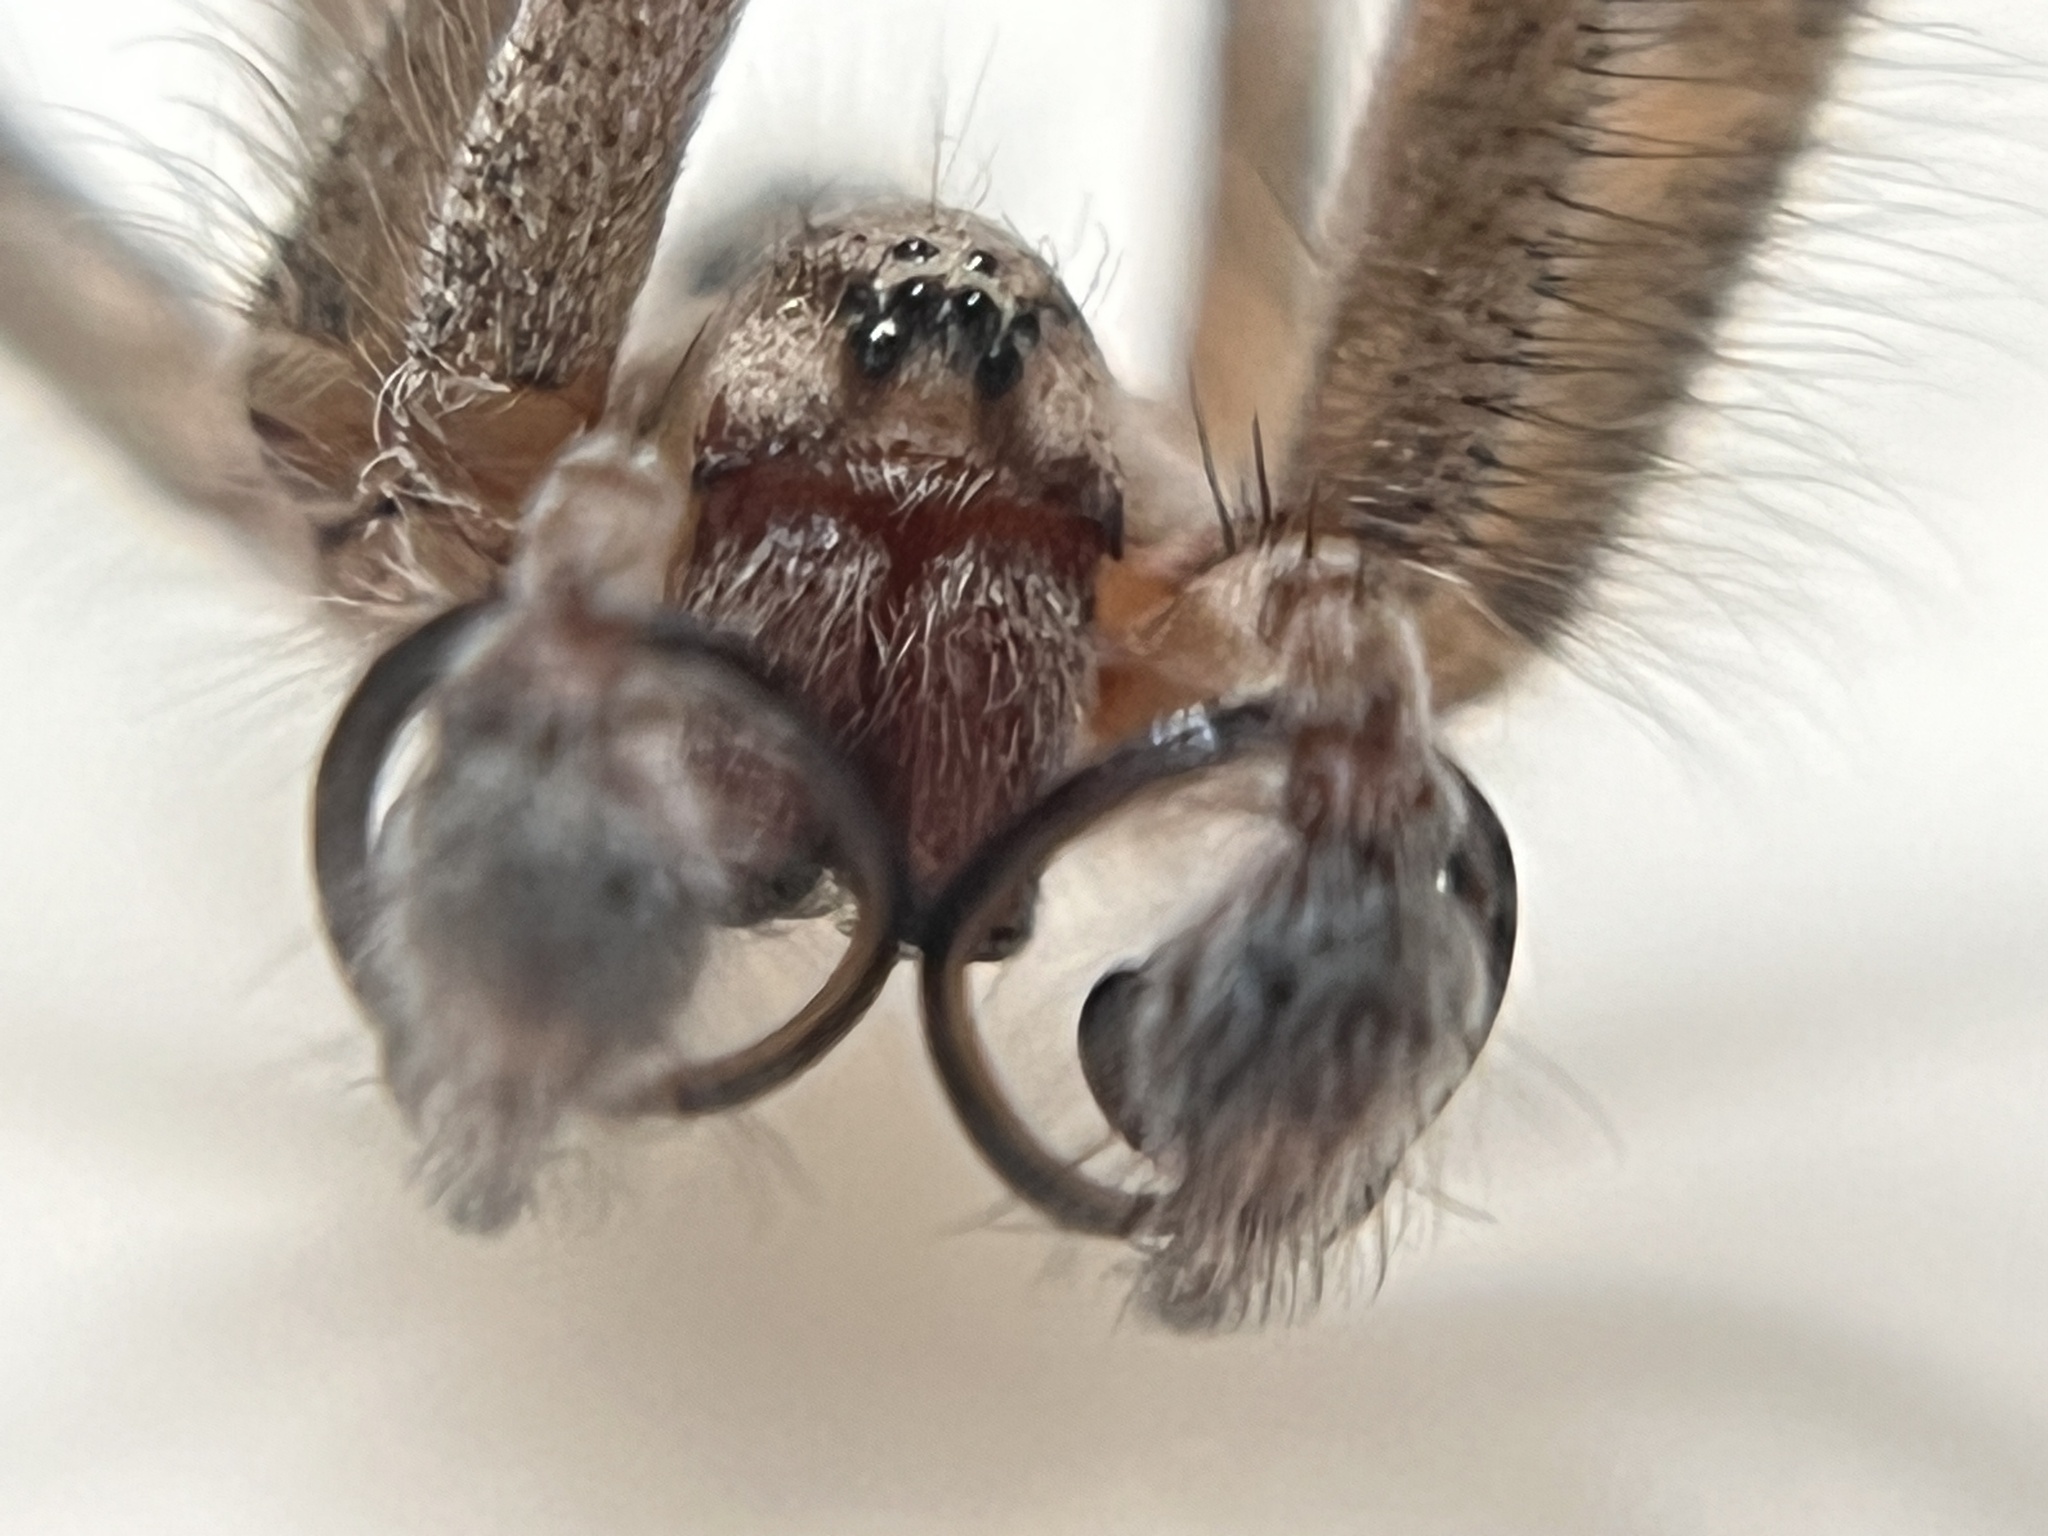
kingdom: Animalia
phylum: Arthropoda
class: Arachnida
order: Araneae
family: Agelenidae
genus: Agelenopsis
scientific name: Agelenopsis aperta
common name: Desert grass spider
